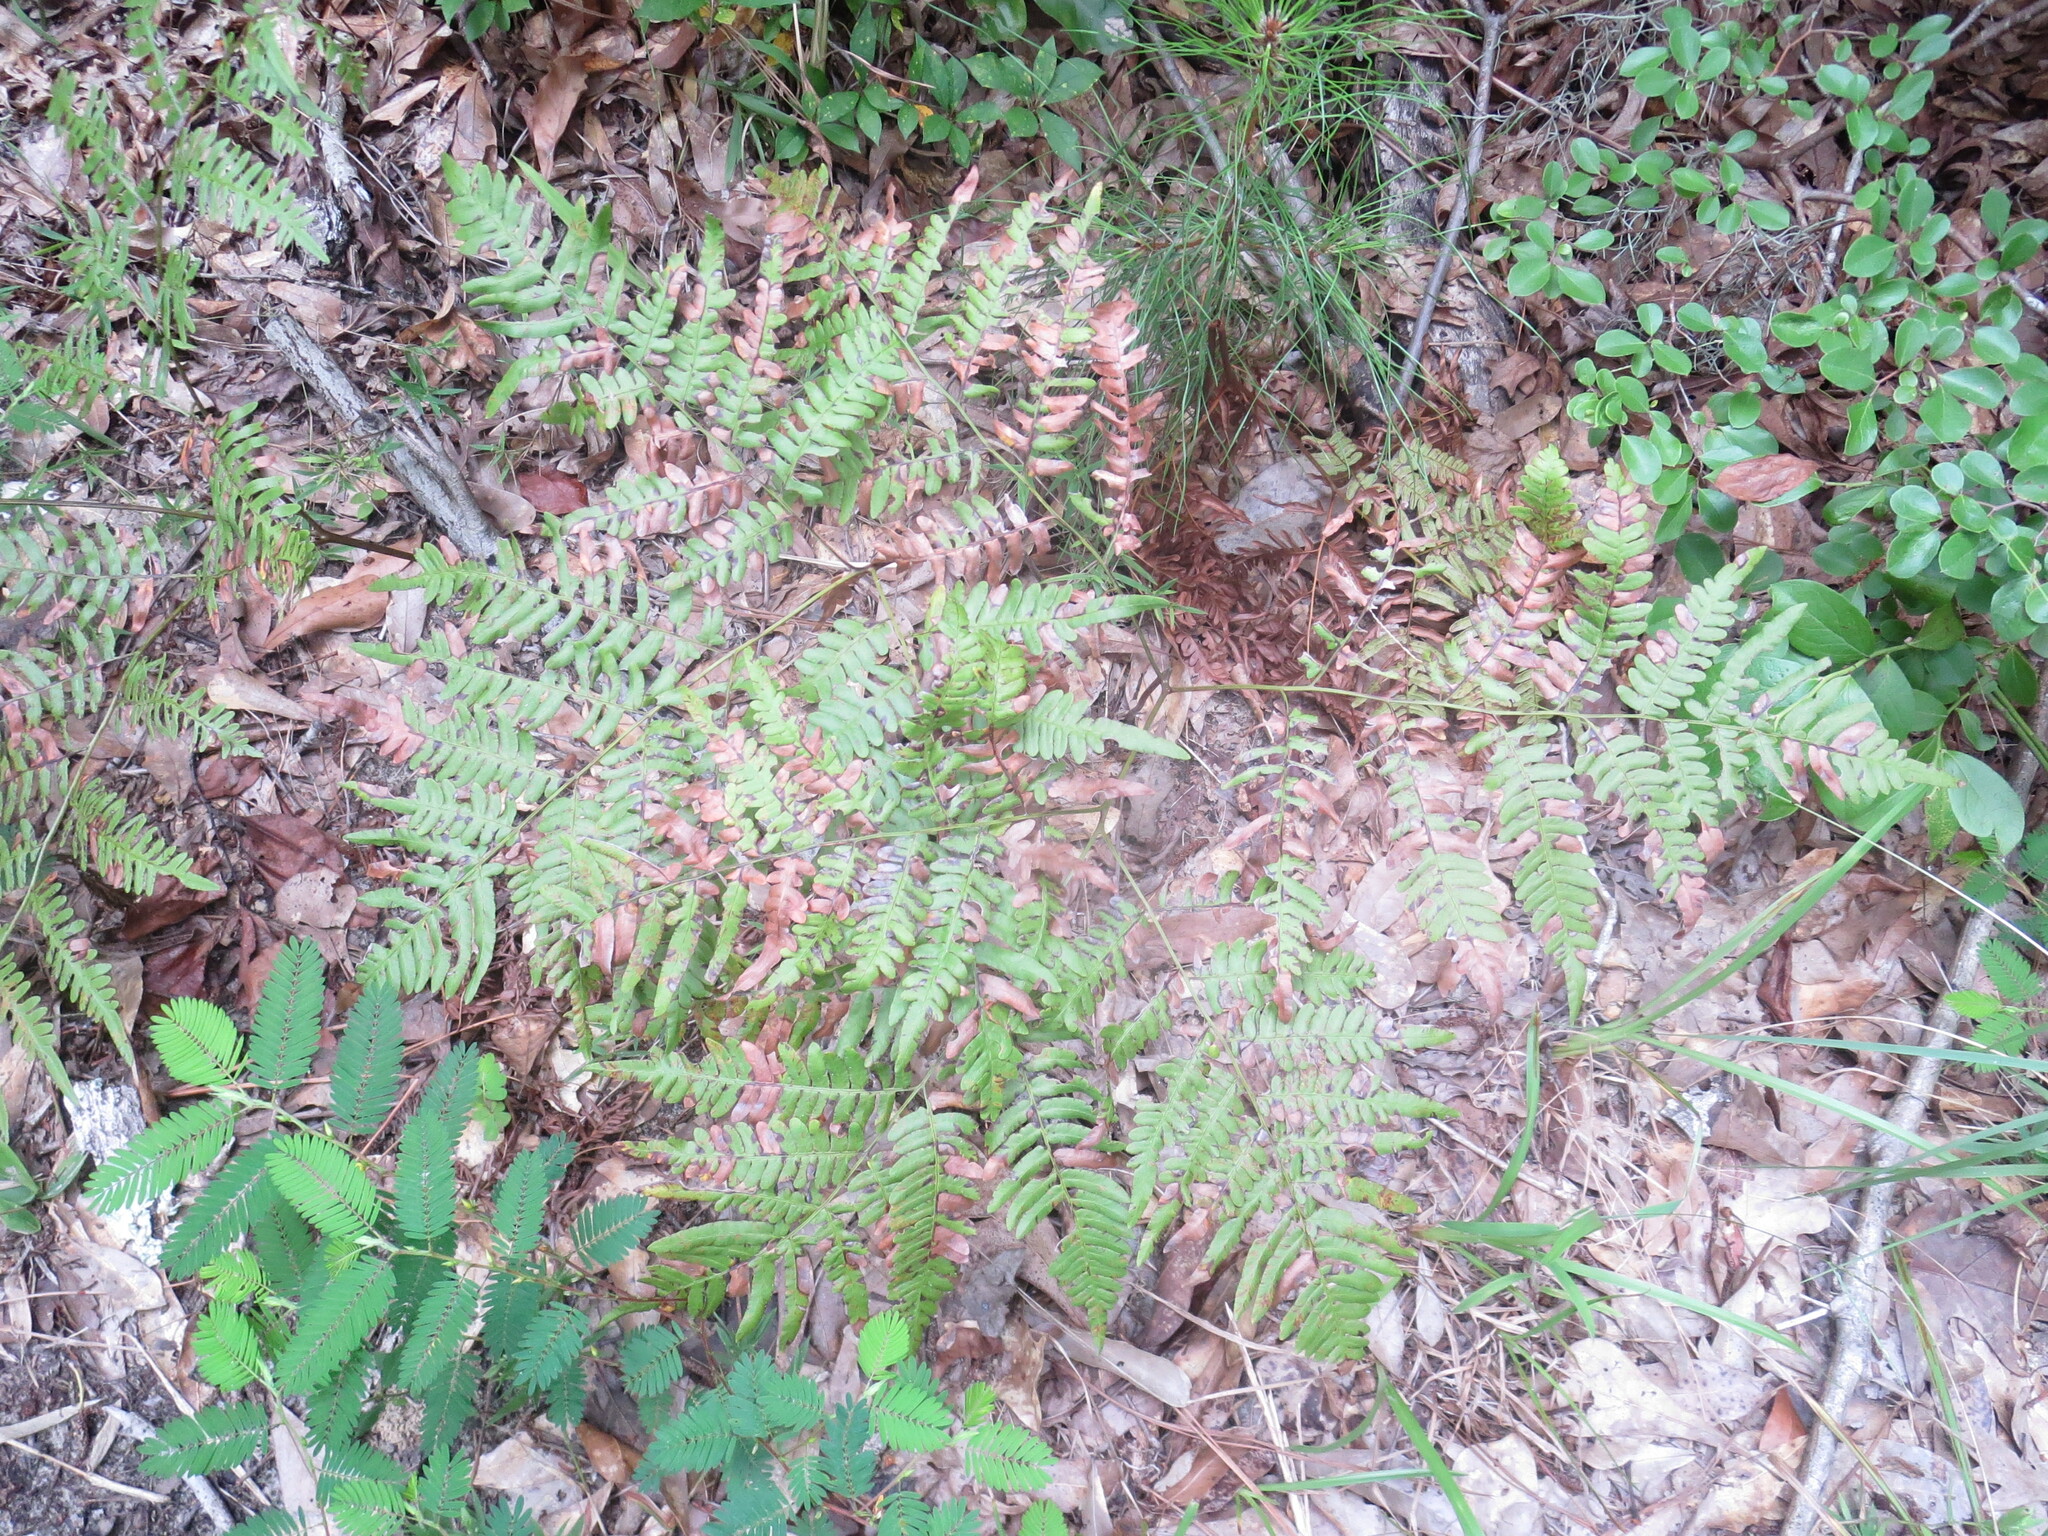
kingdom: Plantae
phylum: Tracheophyta
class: Polypodiopsida
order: Polypodiales
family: Dennstaedtiaceae
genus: Pteridium
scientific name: Pteridium aquilinum
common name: Bracken
